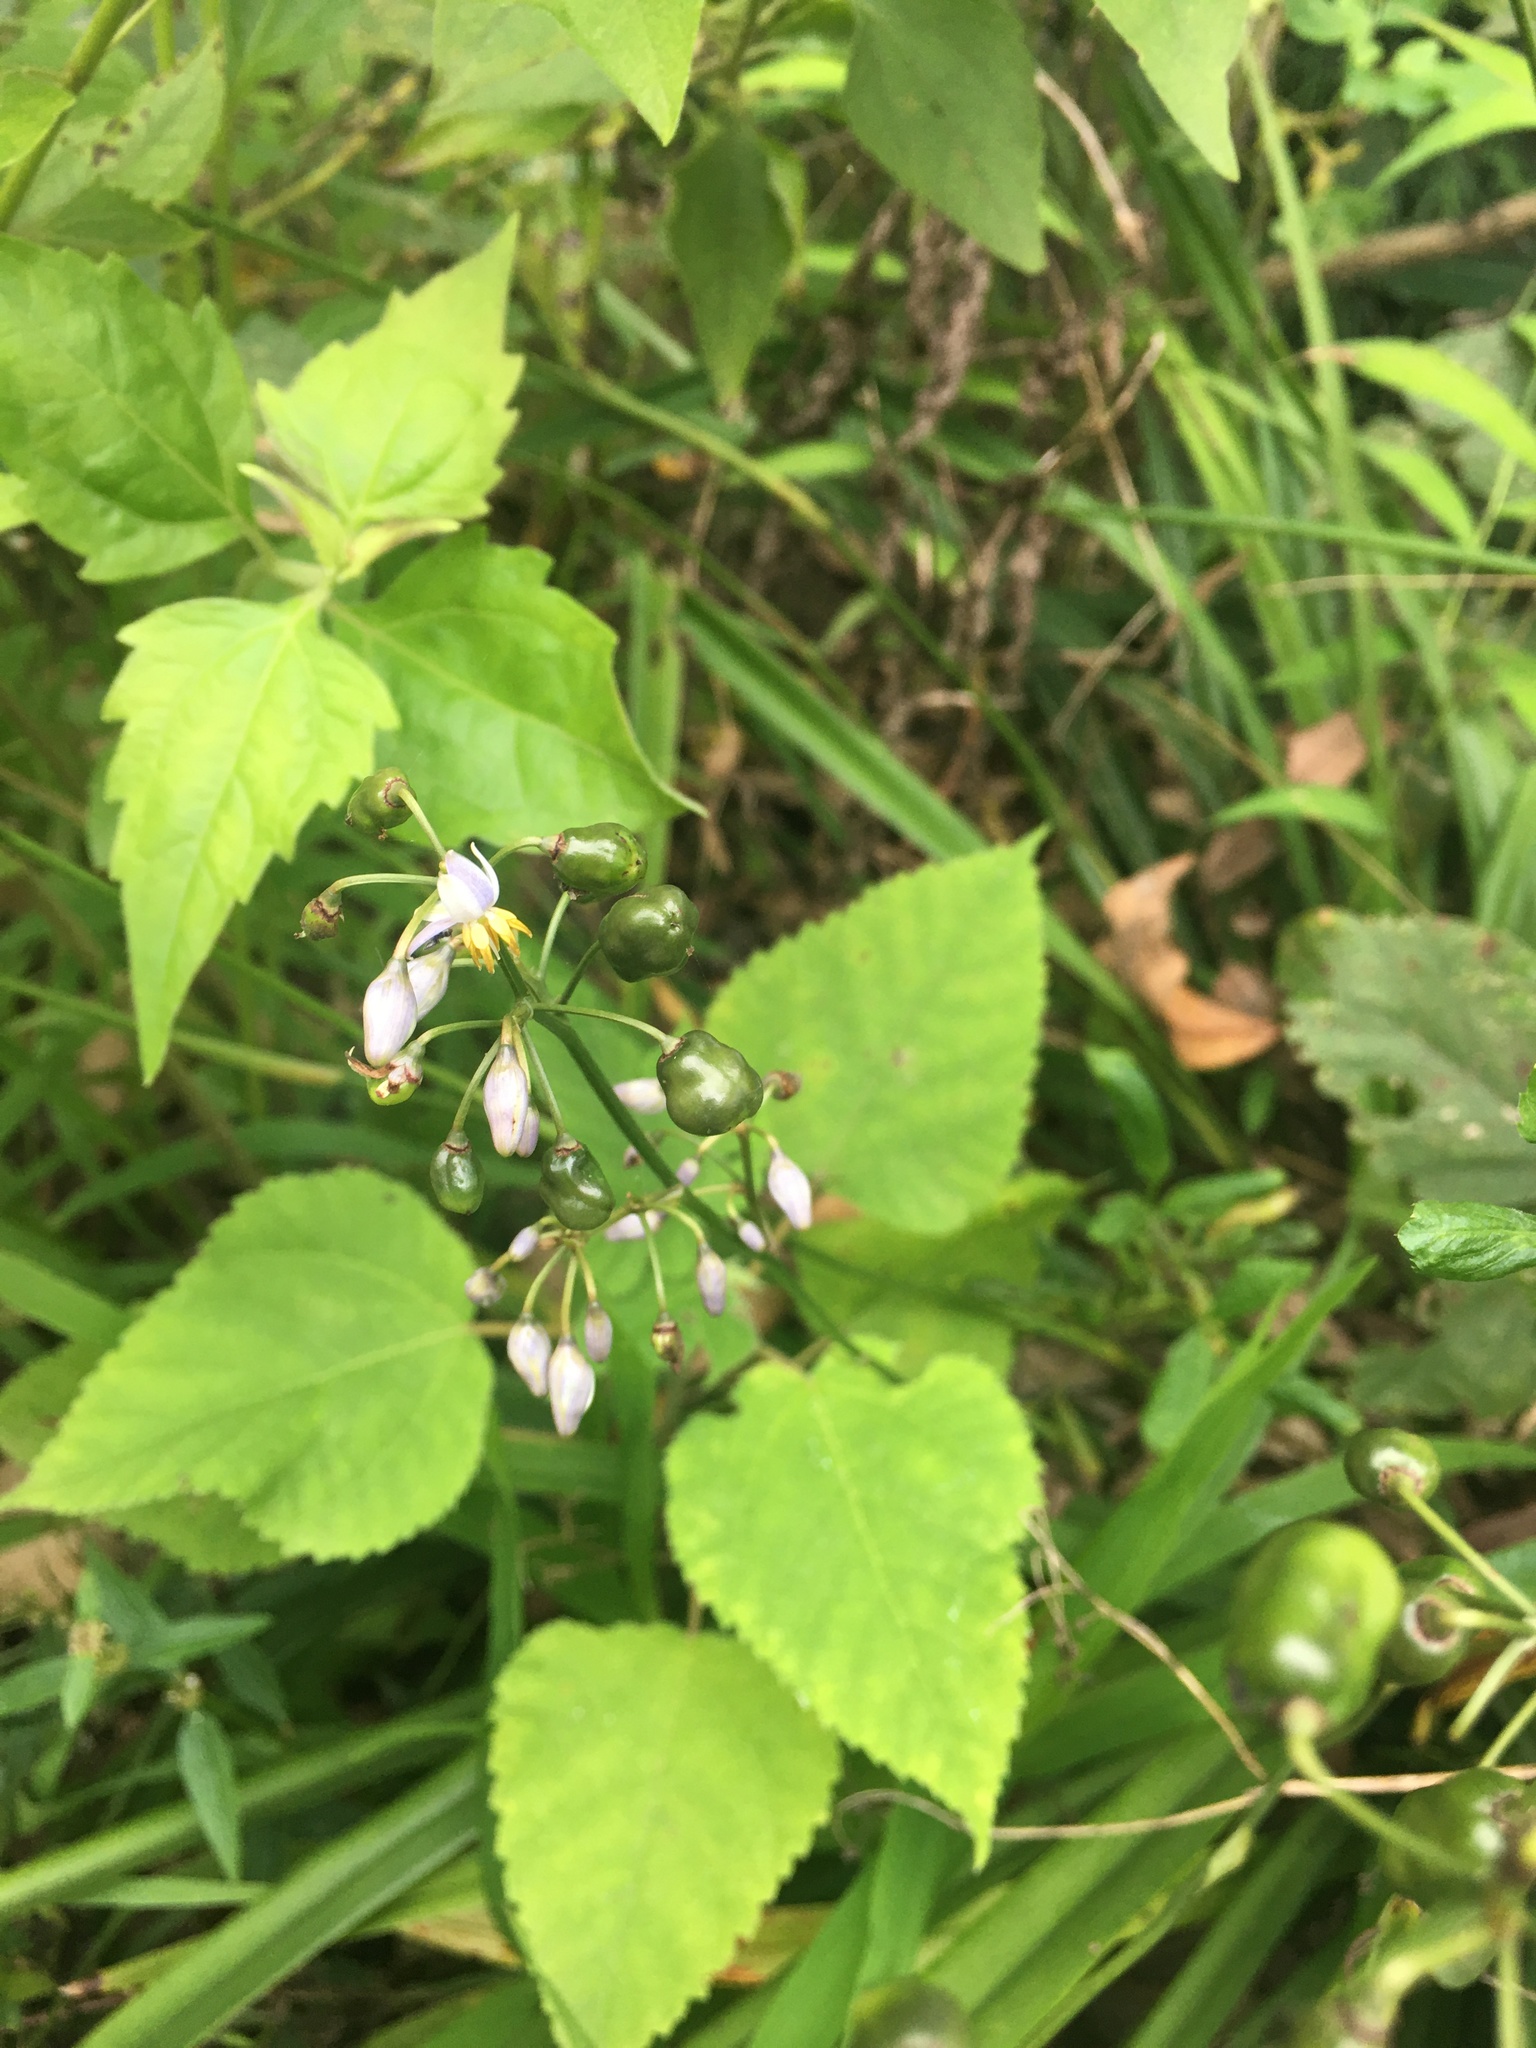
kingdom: Plantae
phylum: Tracheophyta
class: Liliopsida
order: Asparagales
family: Asphodelaceae
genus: Dianella
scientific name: Dianella ensifolia
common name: New zealand lilyplant
